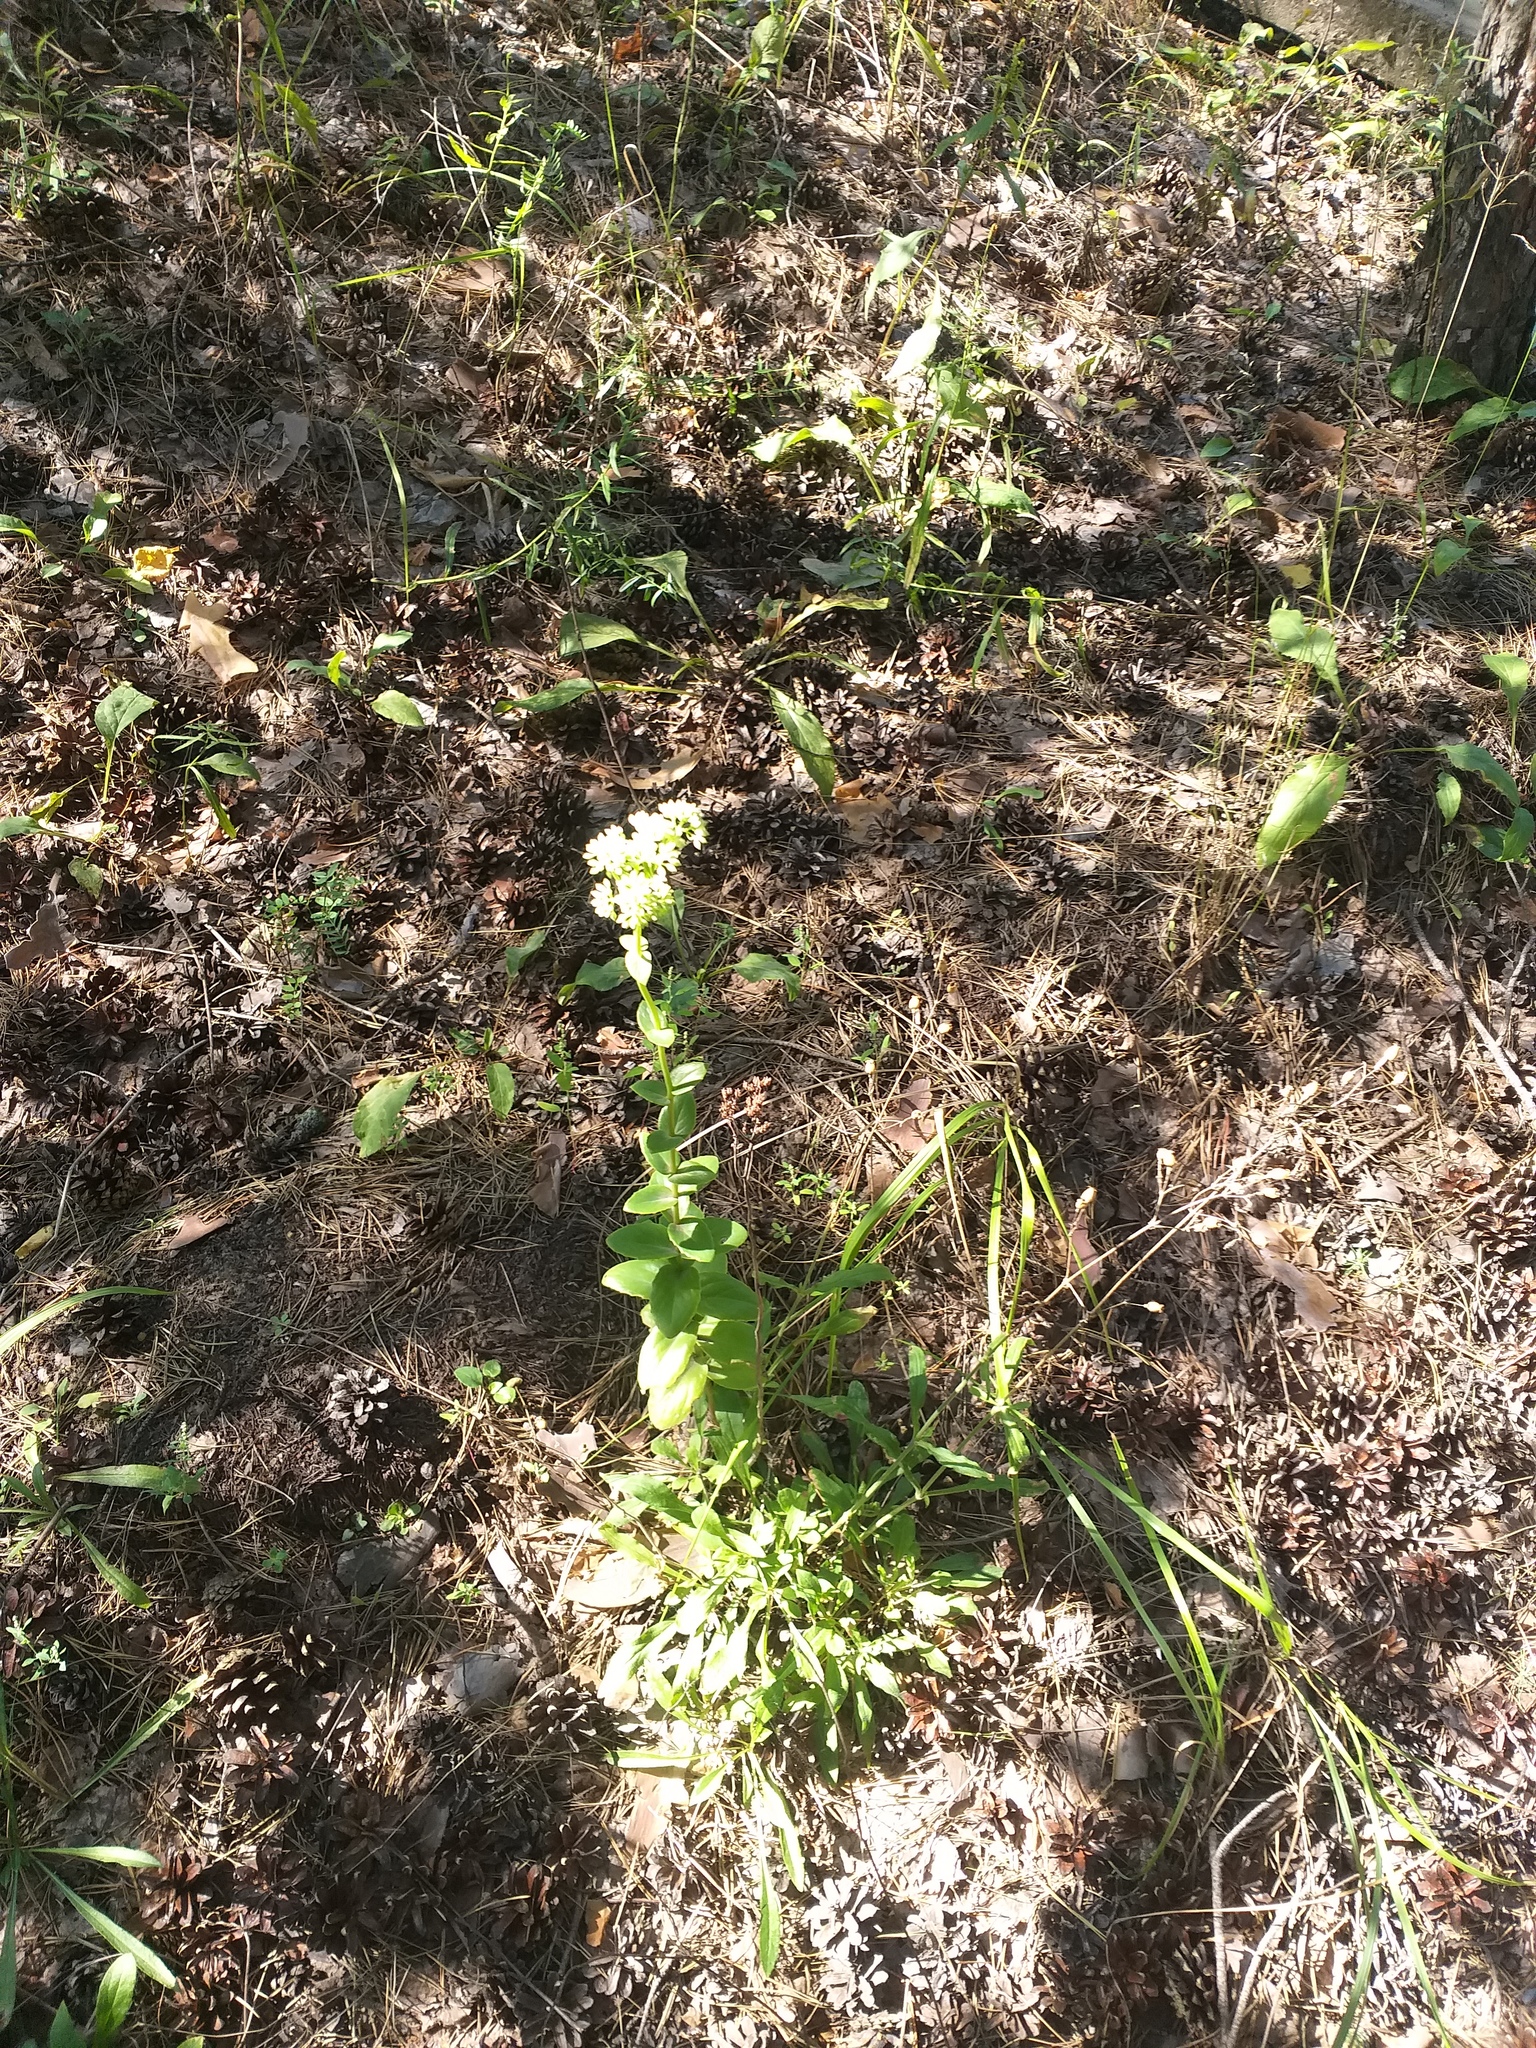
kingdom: Plantae
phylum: Tracheophyta
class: Magnoliopsida
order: Saxifragales
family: Crassulaceae
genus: Hylotelephium
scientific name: Hylotelephium maximum
